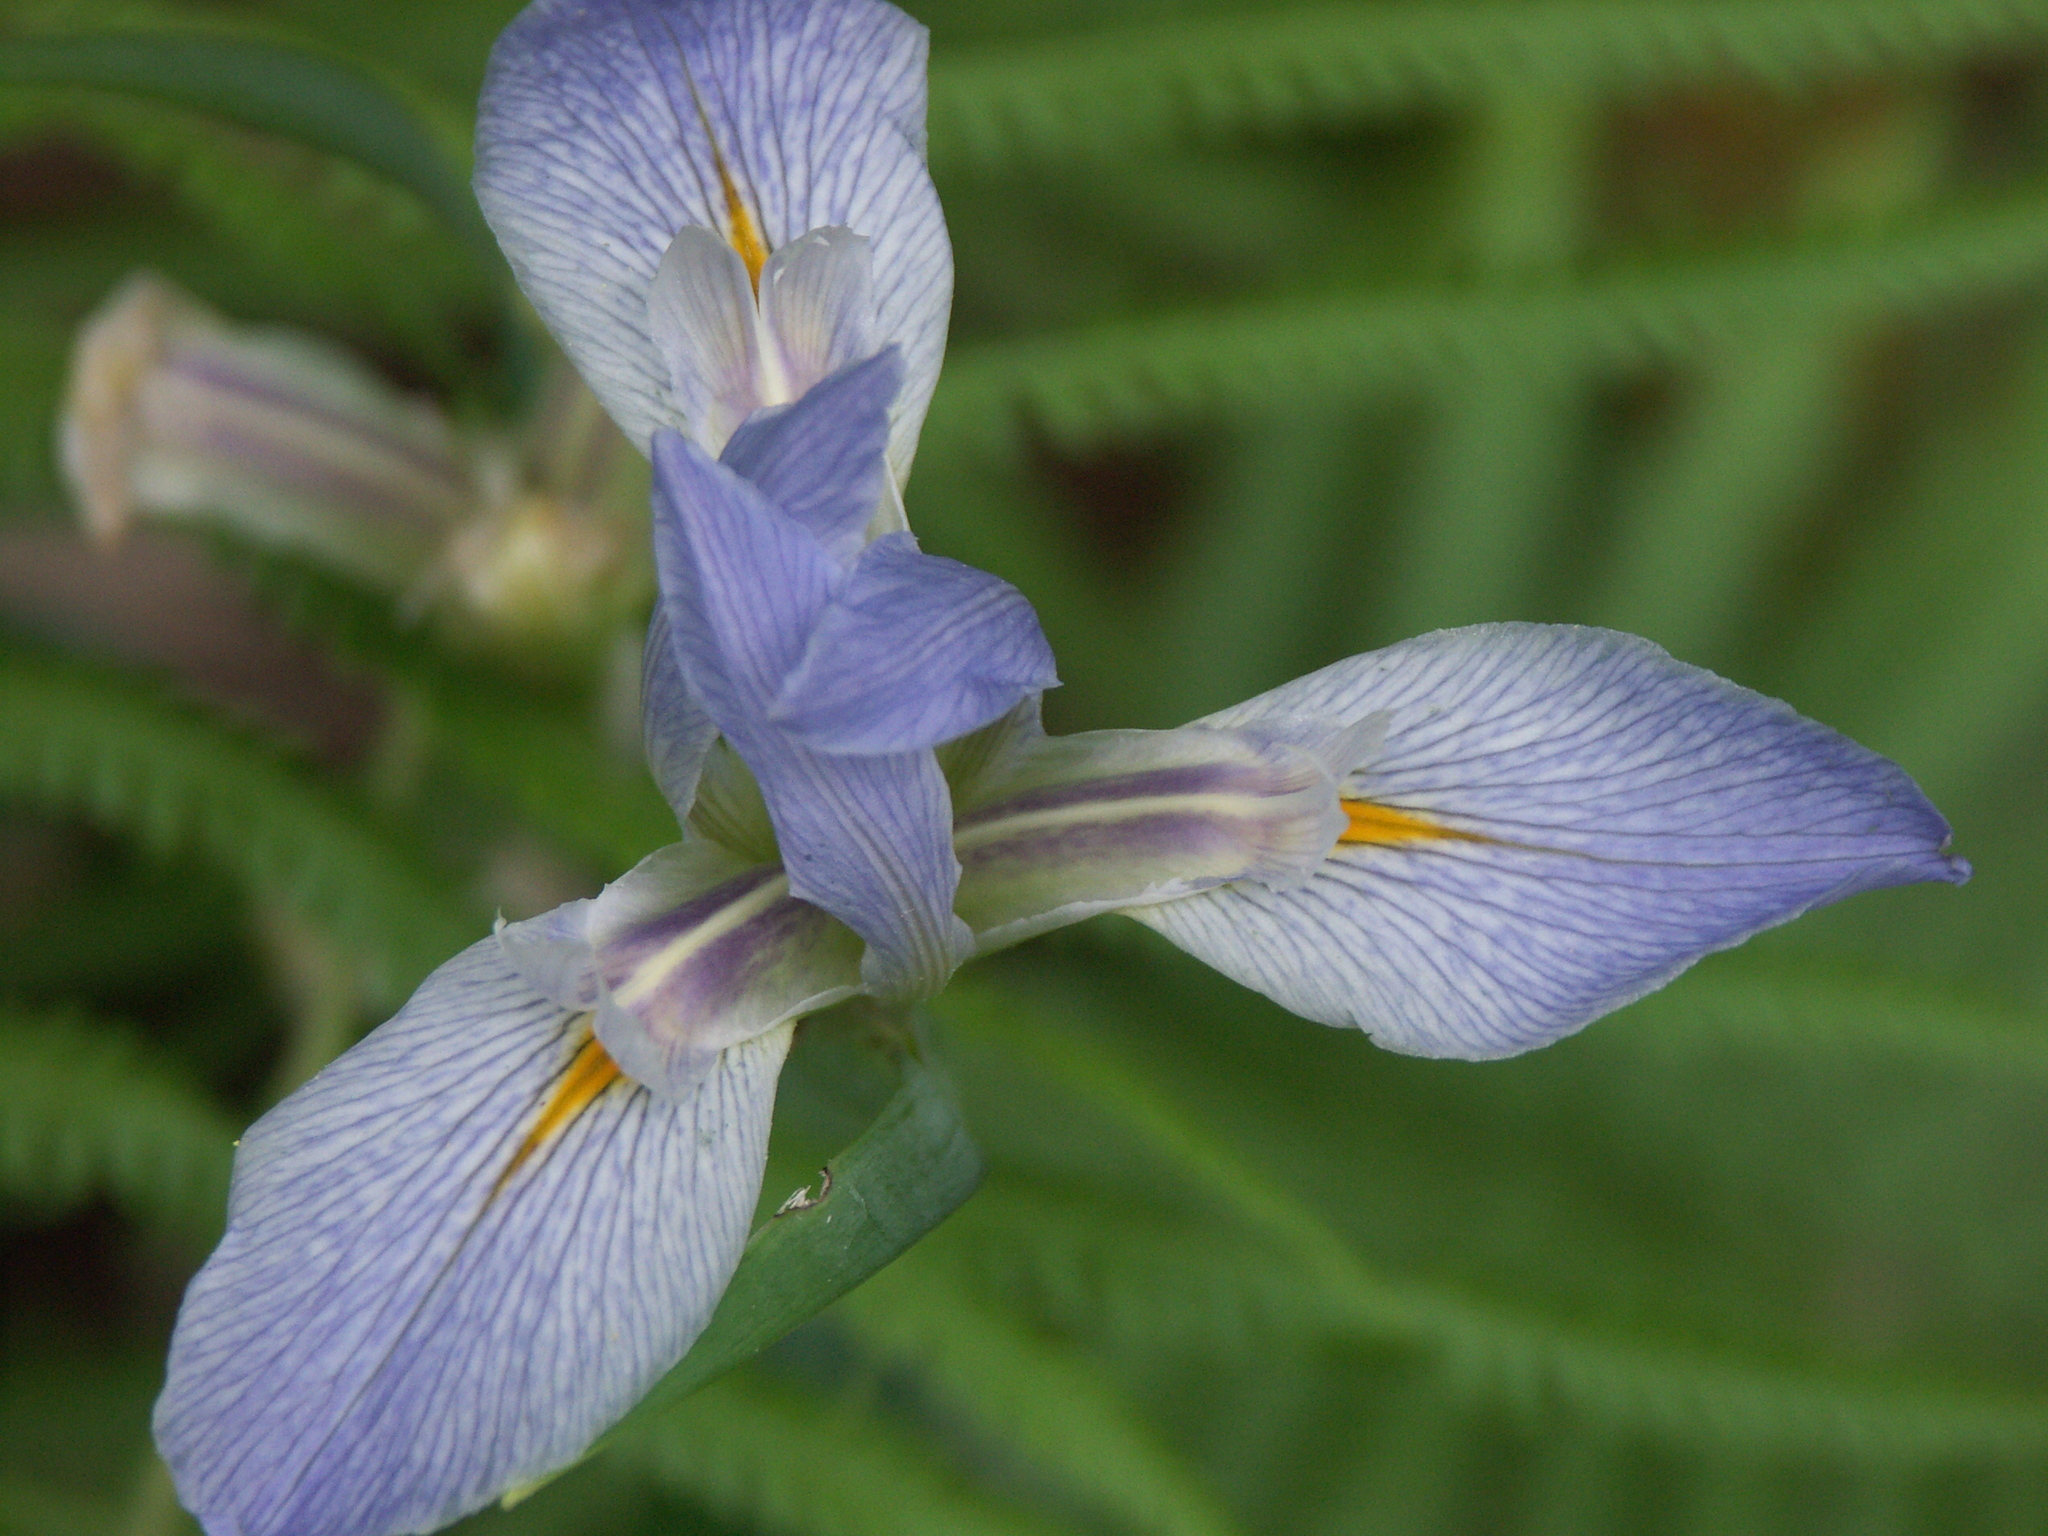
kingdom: Plantae
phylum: Tracheophyta
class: Liliopsida
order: Asparagales
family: Iridaceae
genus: Iris
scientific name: Iris savannarum
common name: Prairie iris
